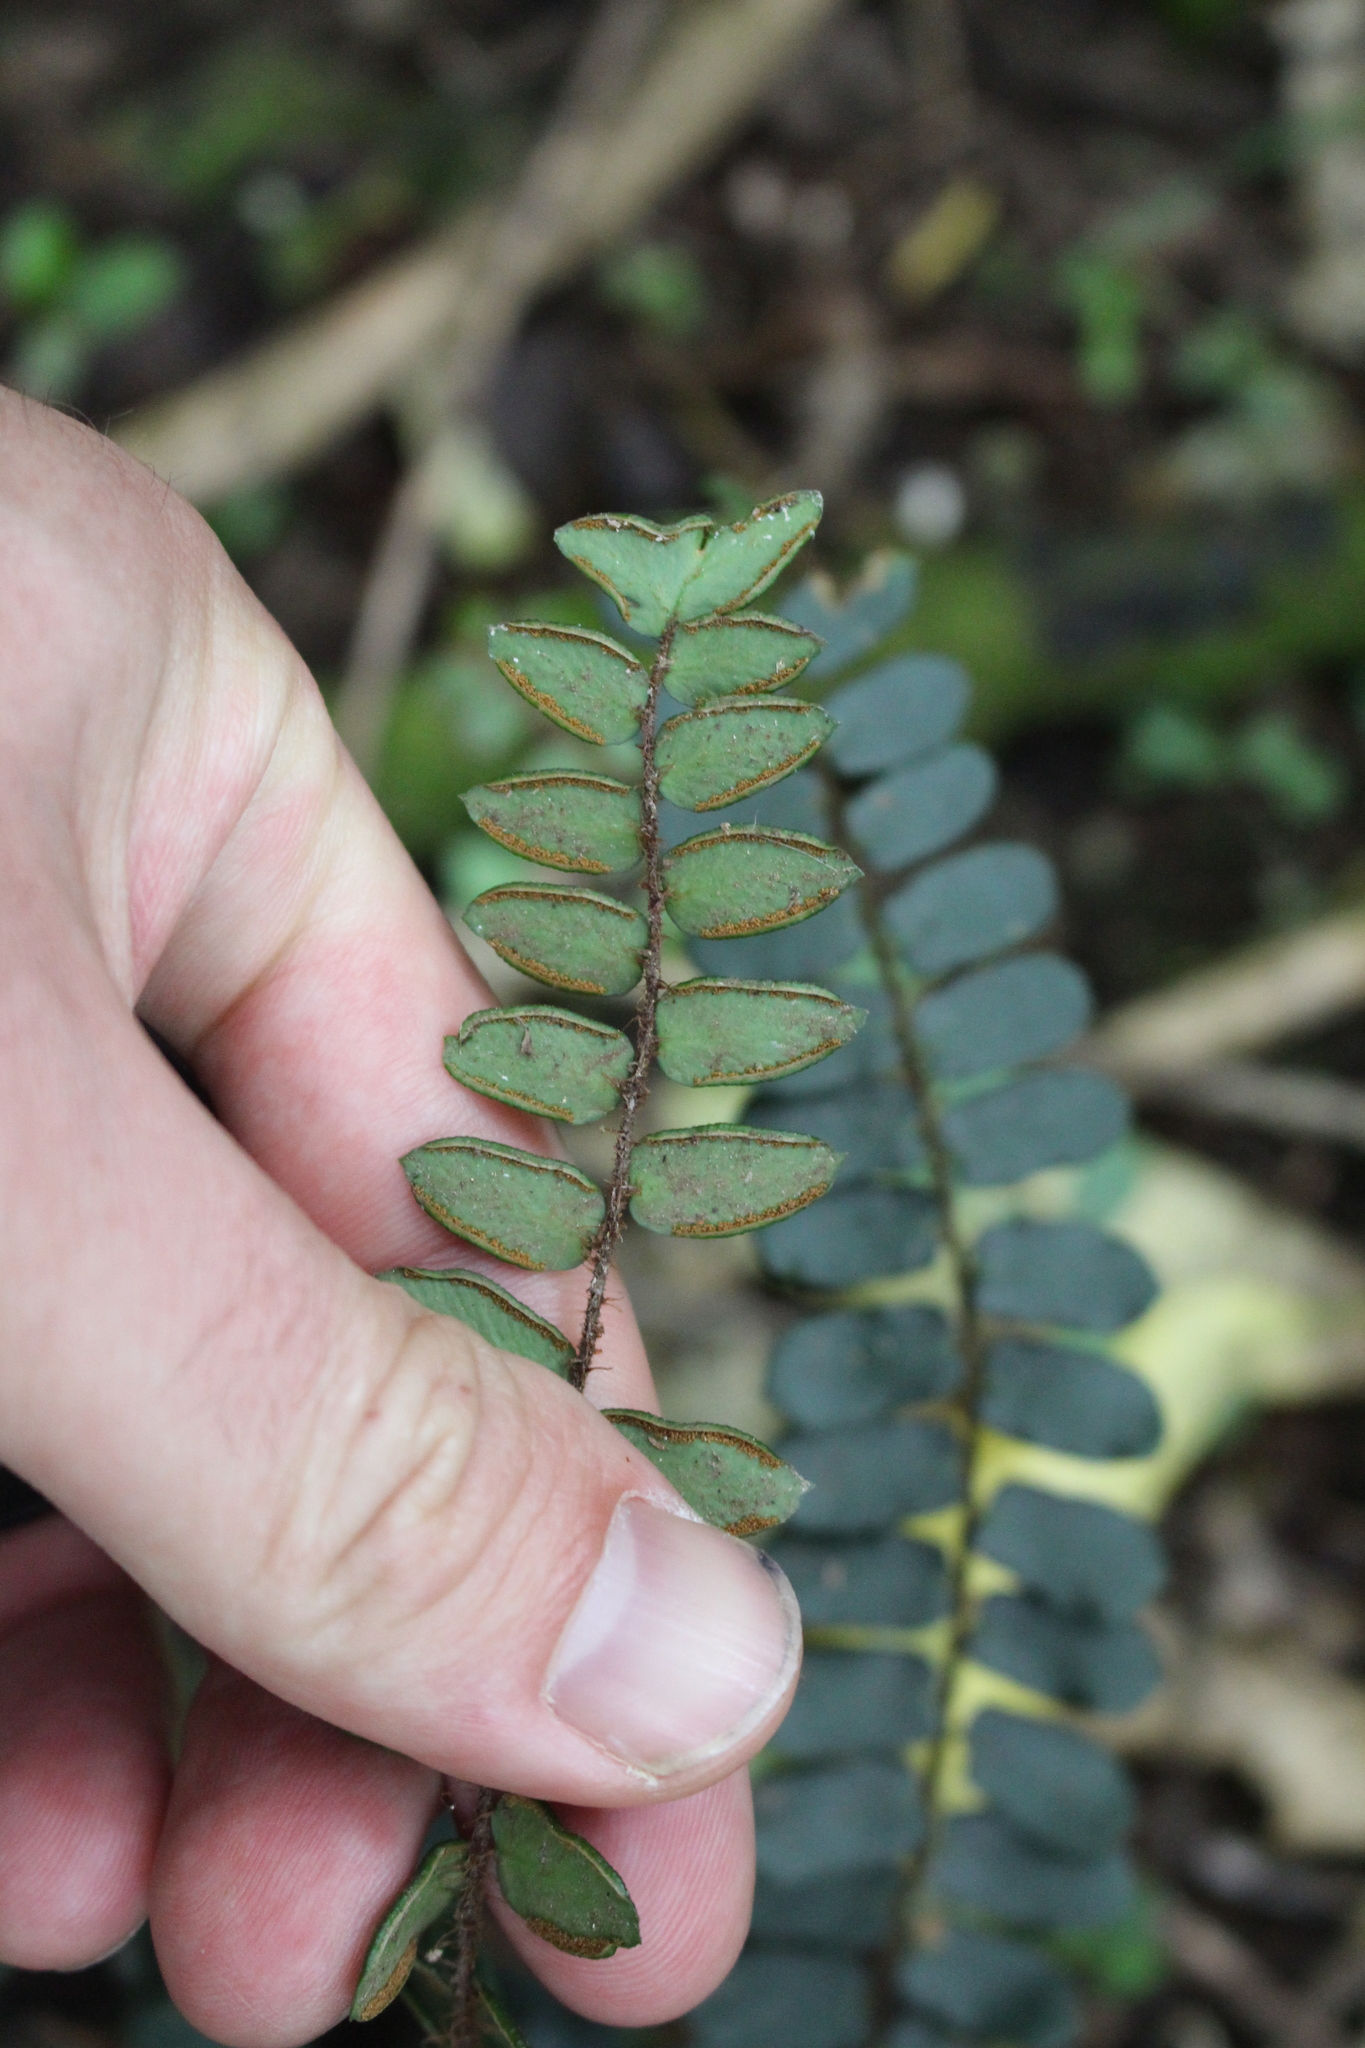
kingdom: Plantae
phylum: Tracheophyta
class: Polypodiopsida
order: Polypodiales
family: Pteridaceae
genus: Pellaea
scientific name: Pellaea rotundifolia
